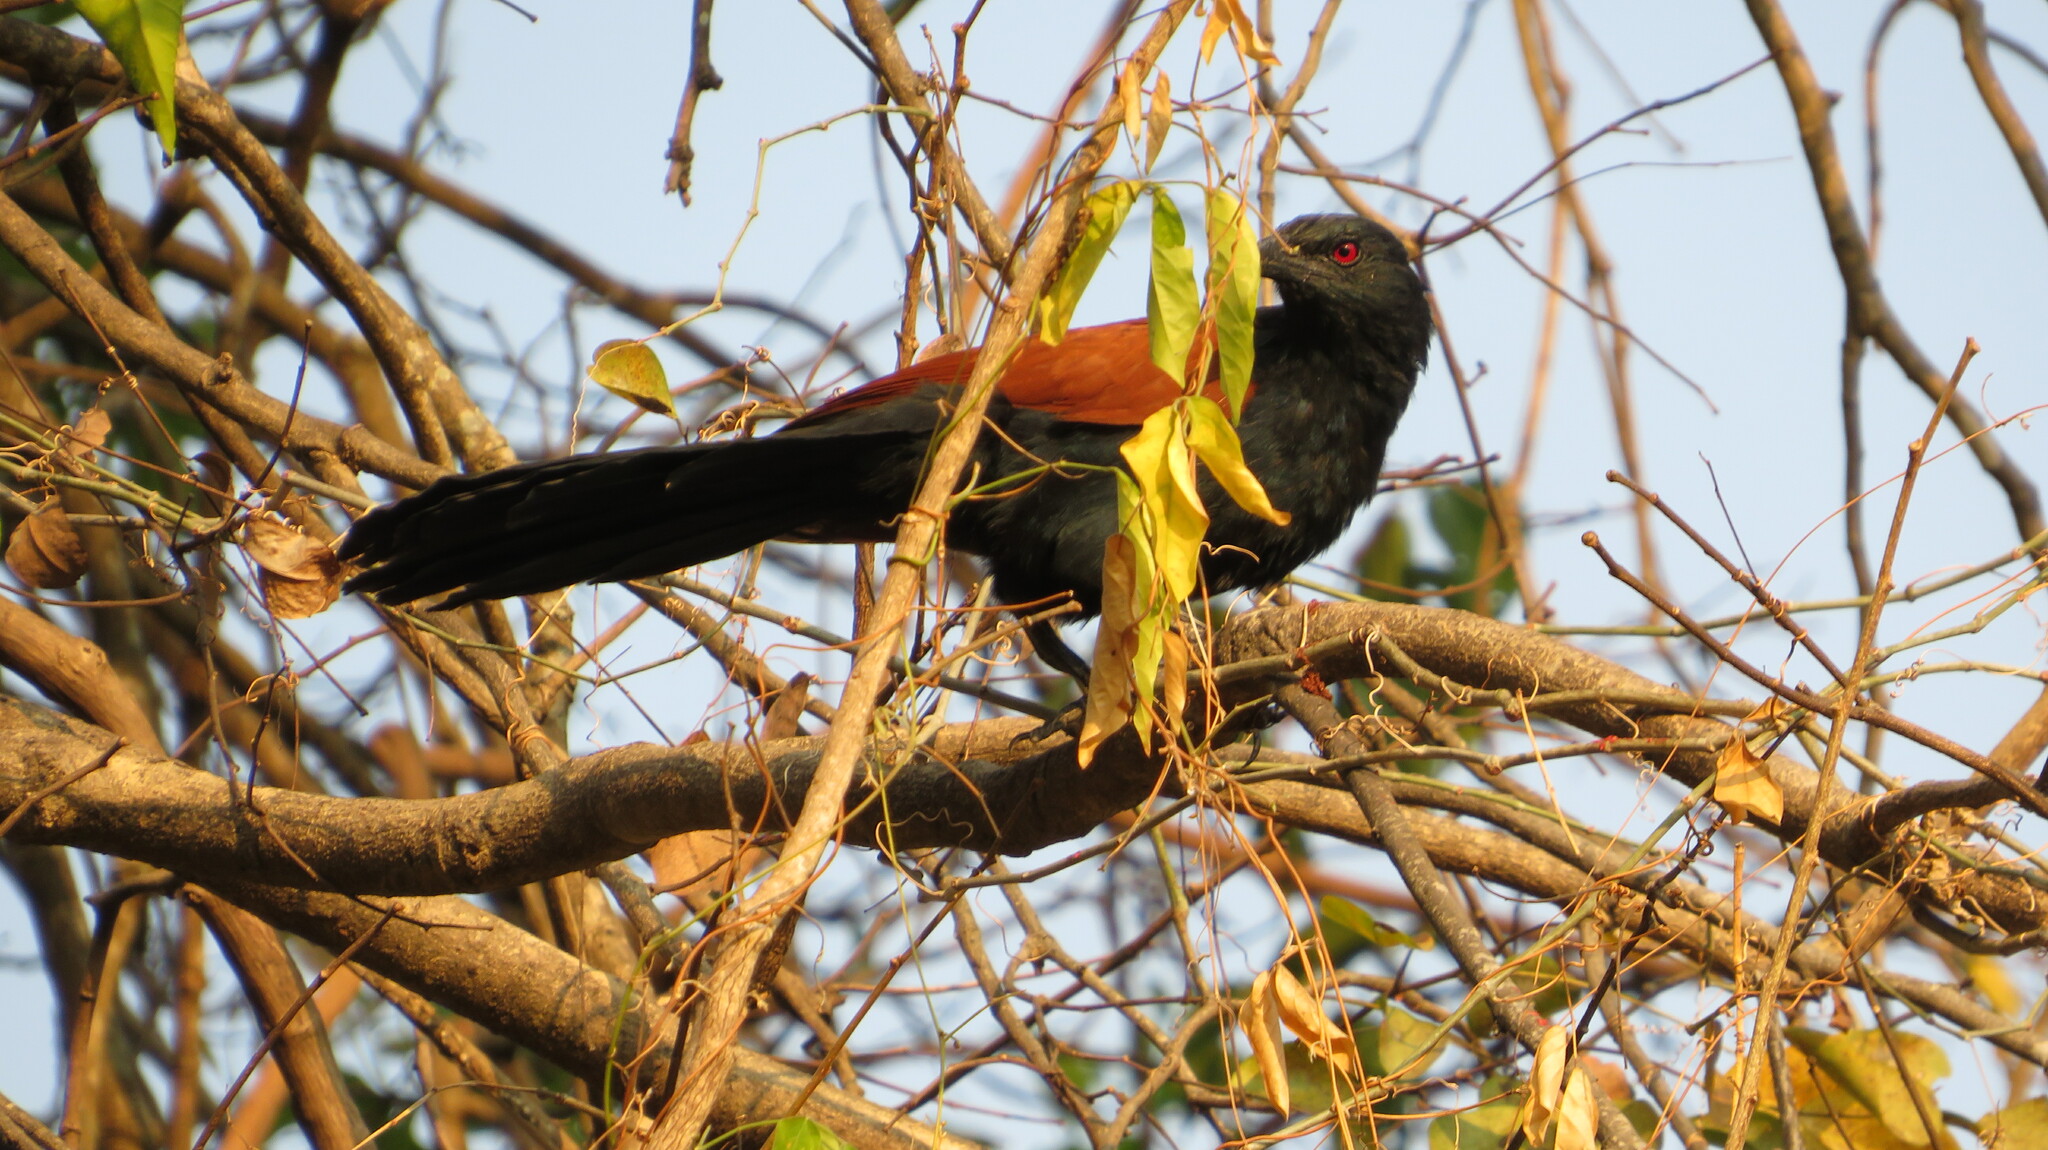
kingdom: Animalia
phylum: Chordata
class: Aves
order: Cuculiformes
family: Cuculidae
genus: Centropus
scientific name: Centropus sinensis
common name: Greater coucal
